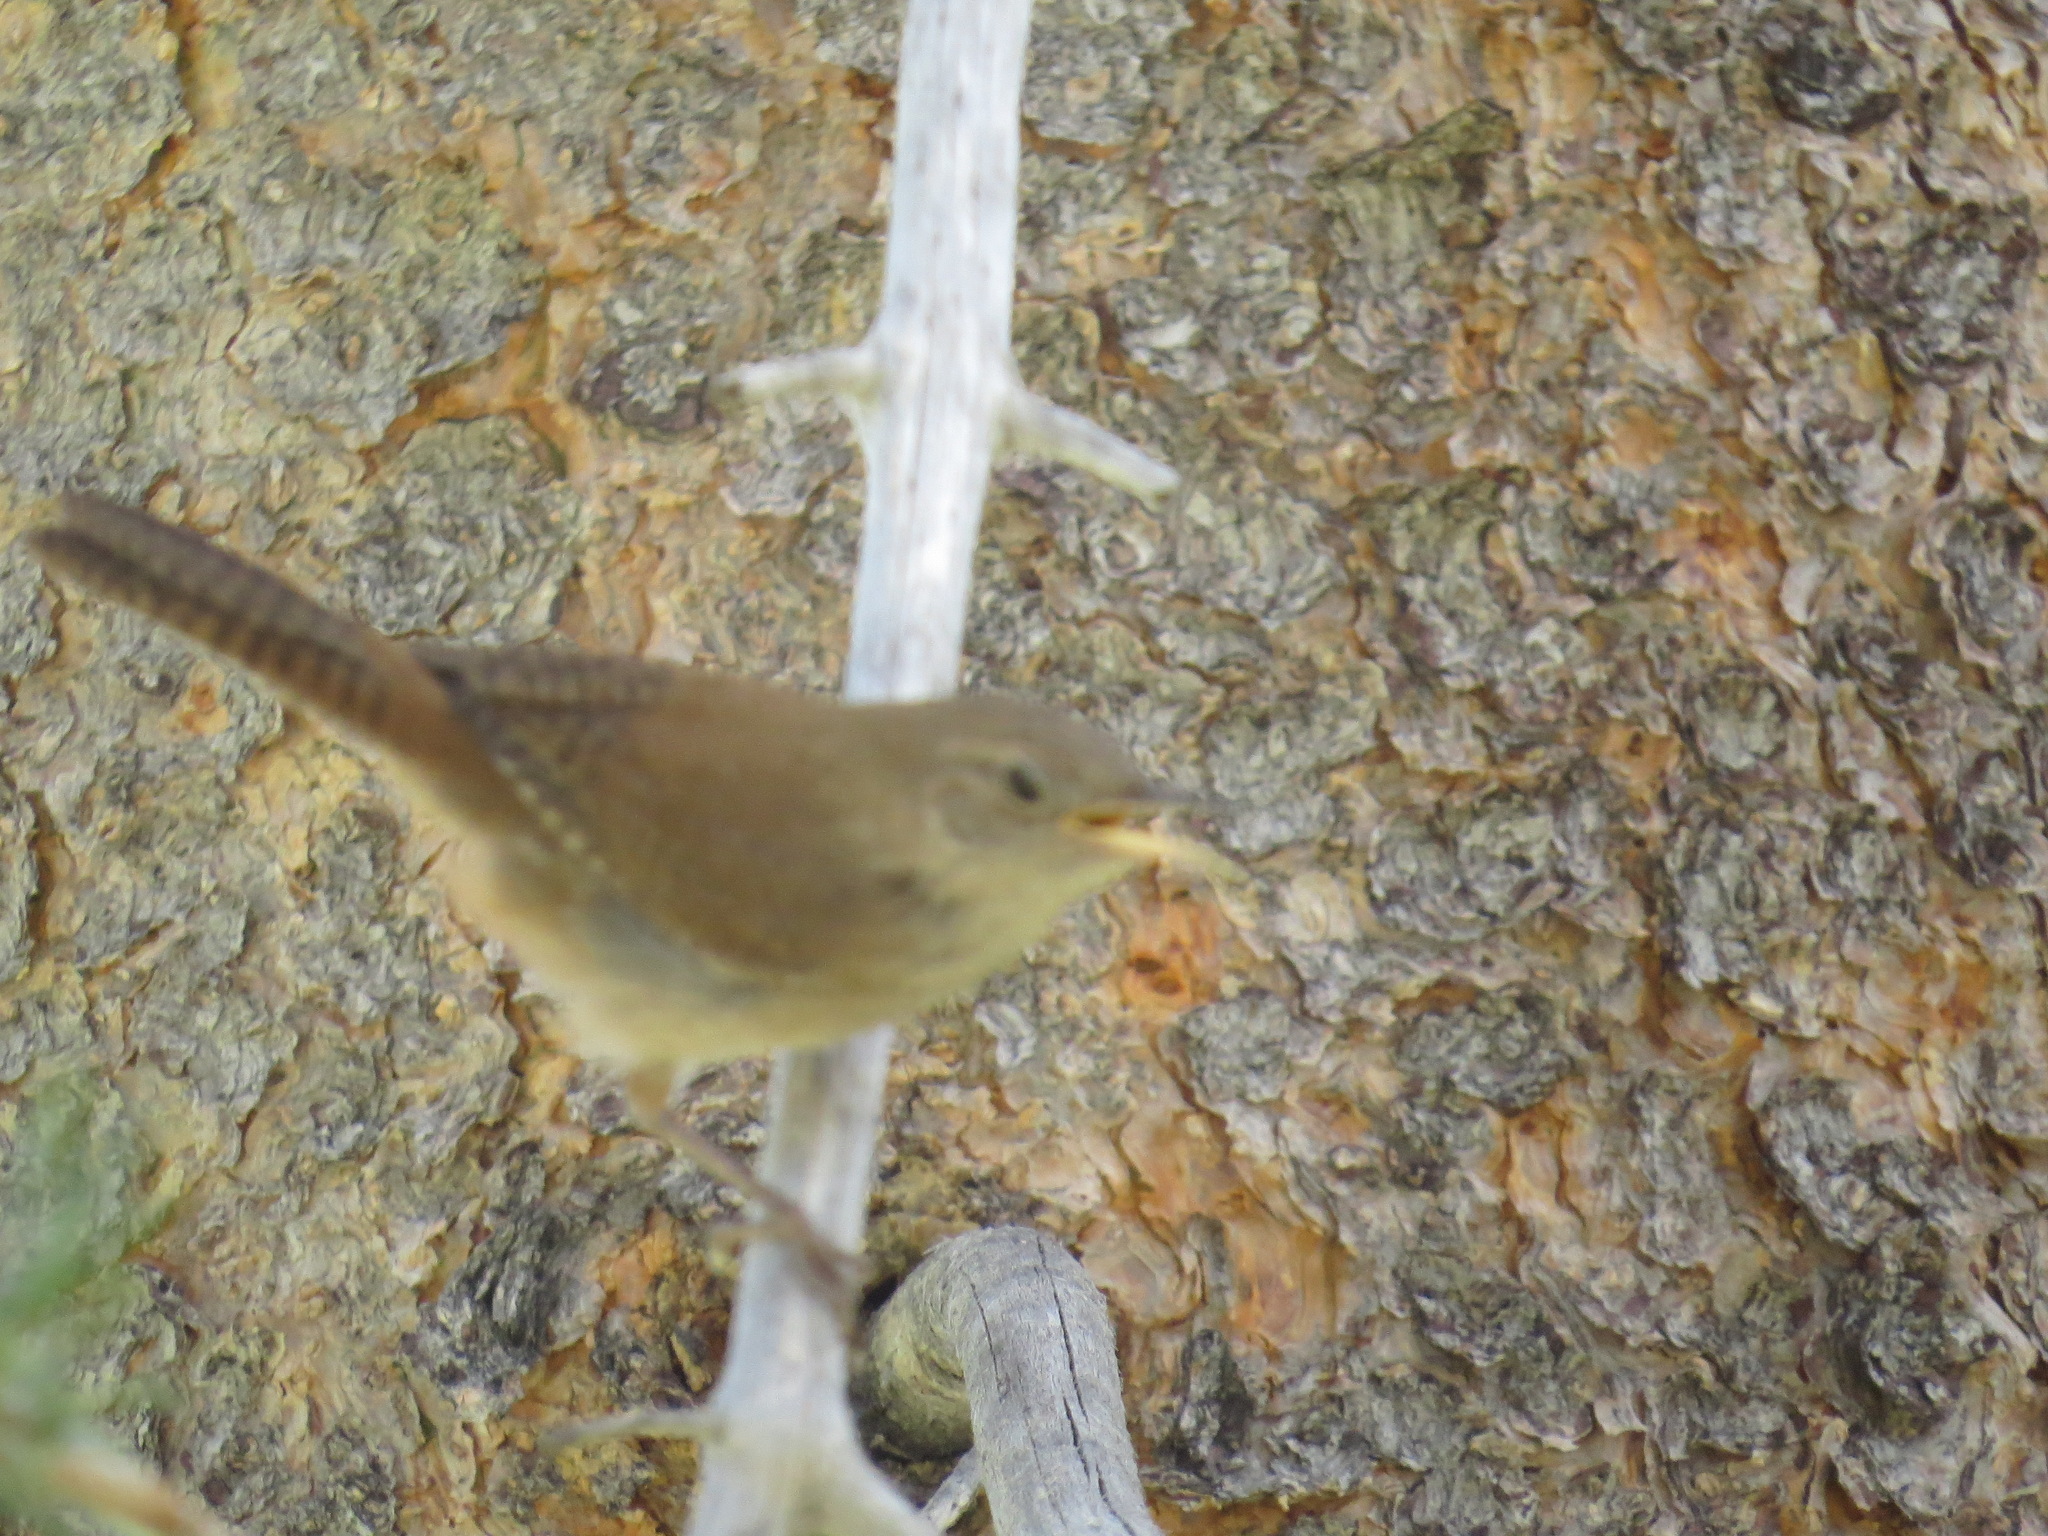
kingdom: Animalia
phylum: Chordata
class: Aves
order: Passeriformes
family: Troglodytidae
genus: Troglodytes
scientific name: Troglodytes aedon
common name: House wren
